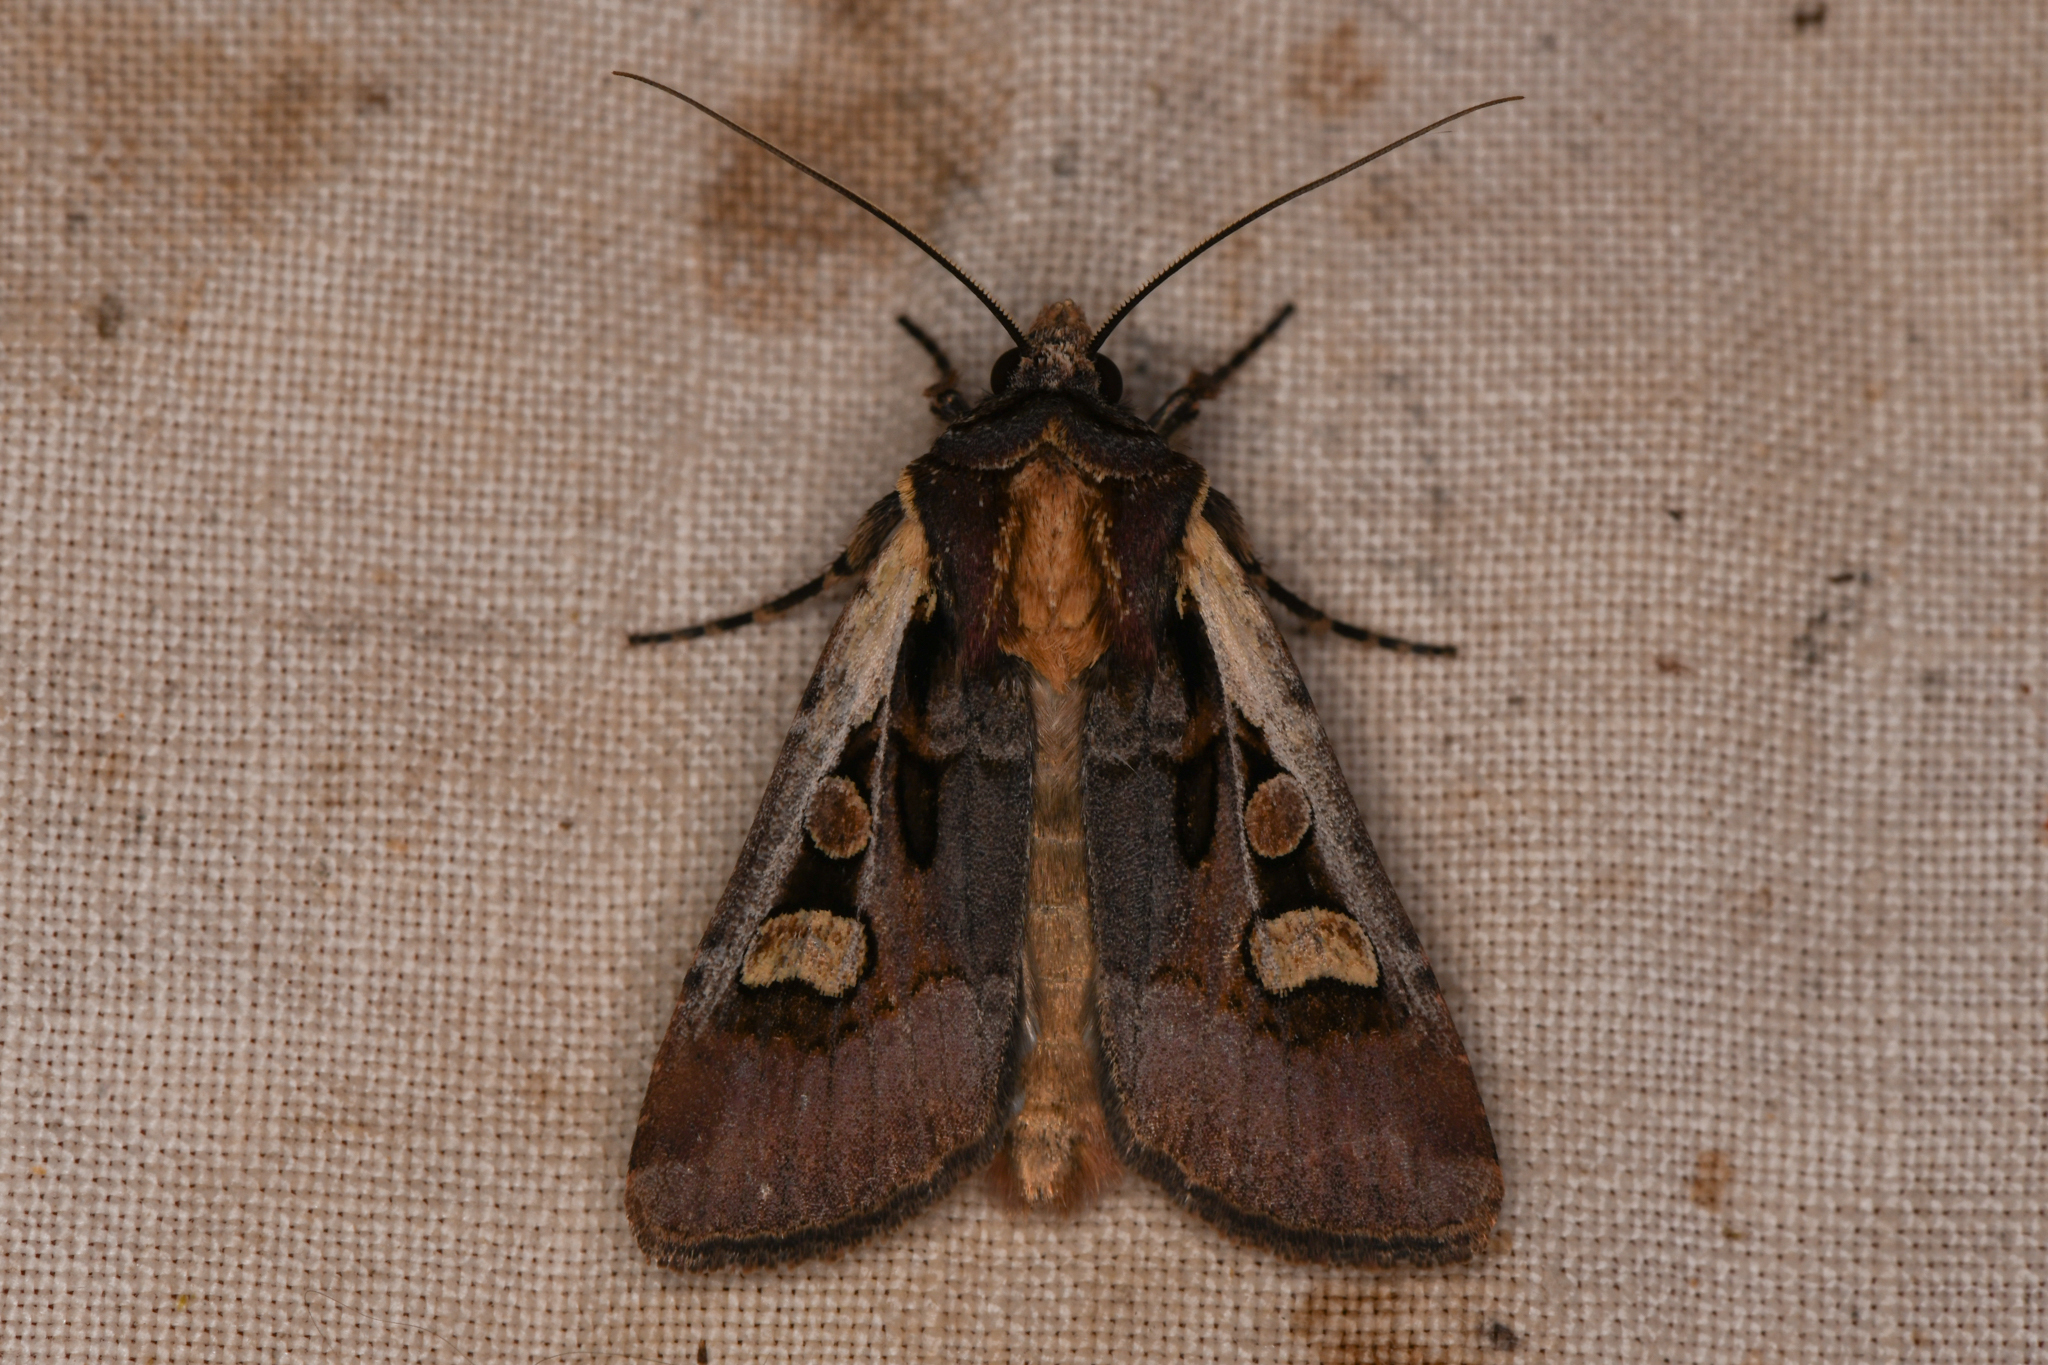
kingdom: Animalia
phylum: Arthropoda
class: Insecta
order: Lepidoptera
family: Noctuidae
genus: Euxoa
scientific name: Euxoa obeliscoides
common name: Obelisk dart moth
